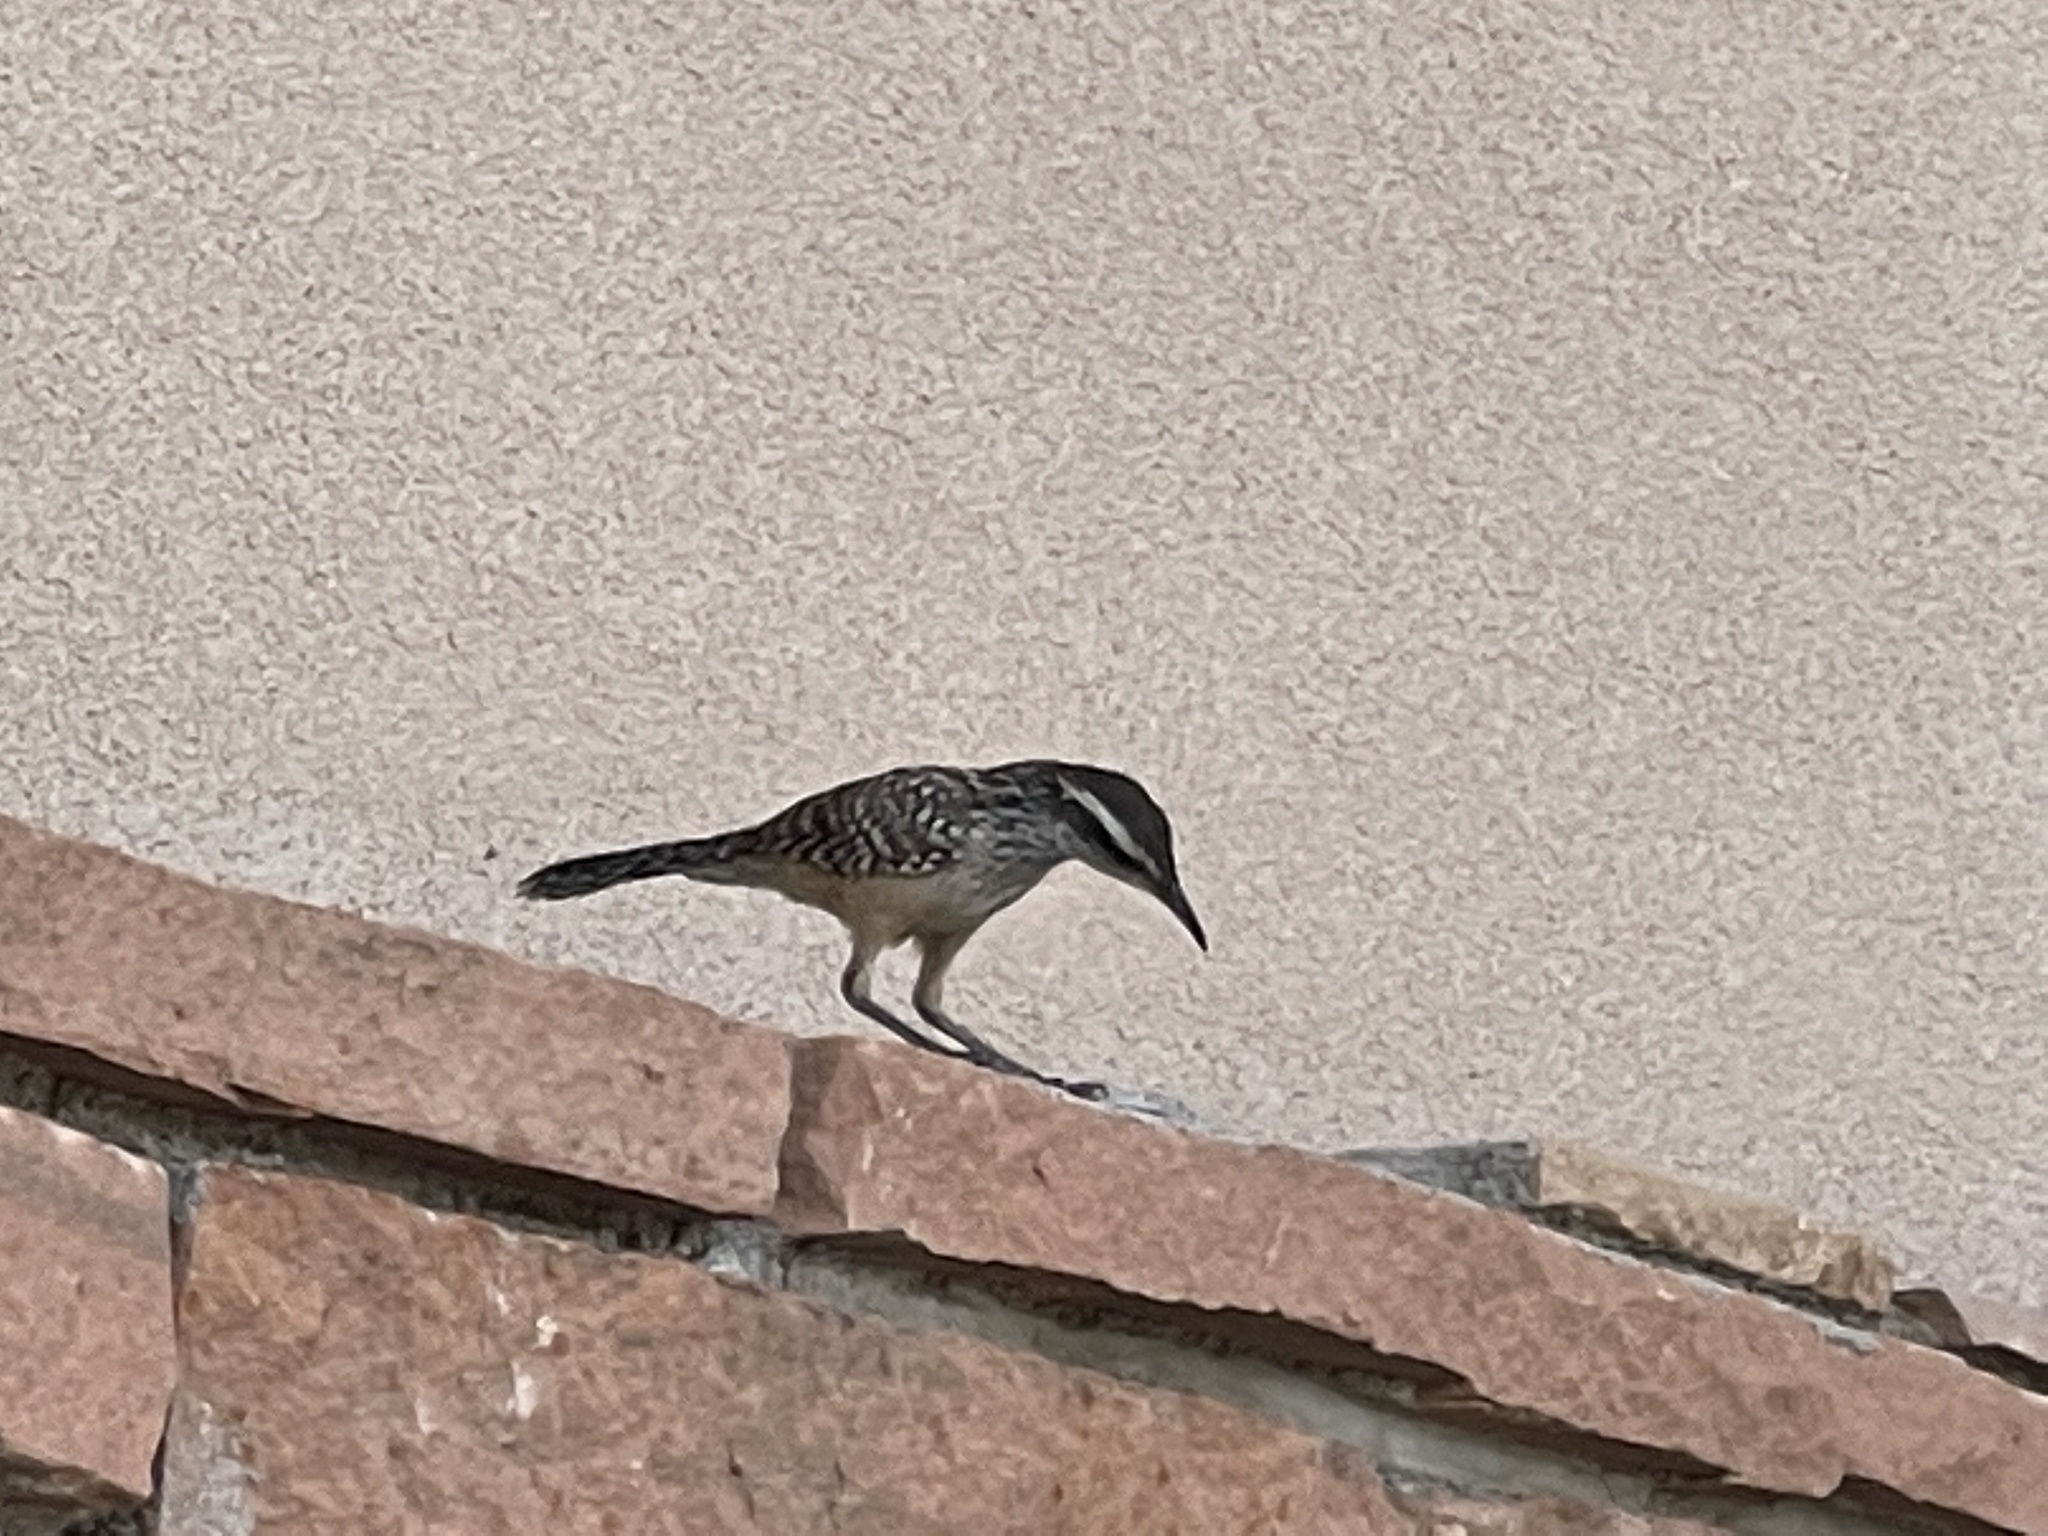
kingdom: Animalia
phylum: Chordata
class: Aves
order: Passeriformes
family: Troglodytidae
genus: Campylorhynchus
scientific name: Campylorhynchus brunneicapillus
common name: Cactus wren
